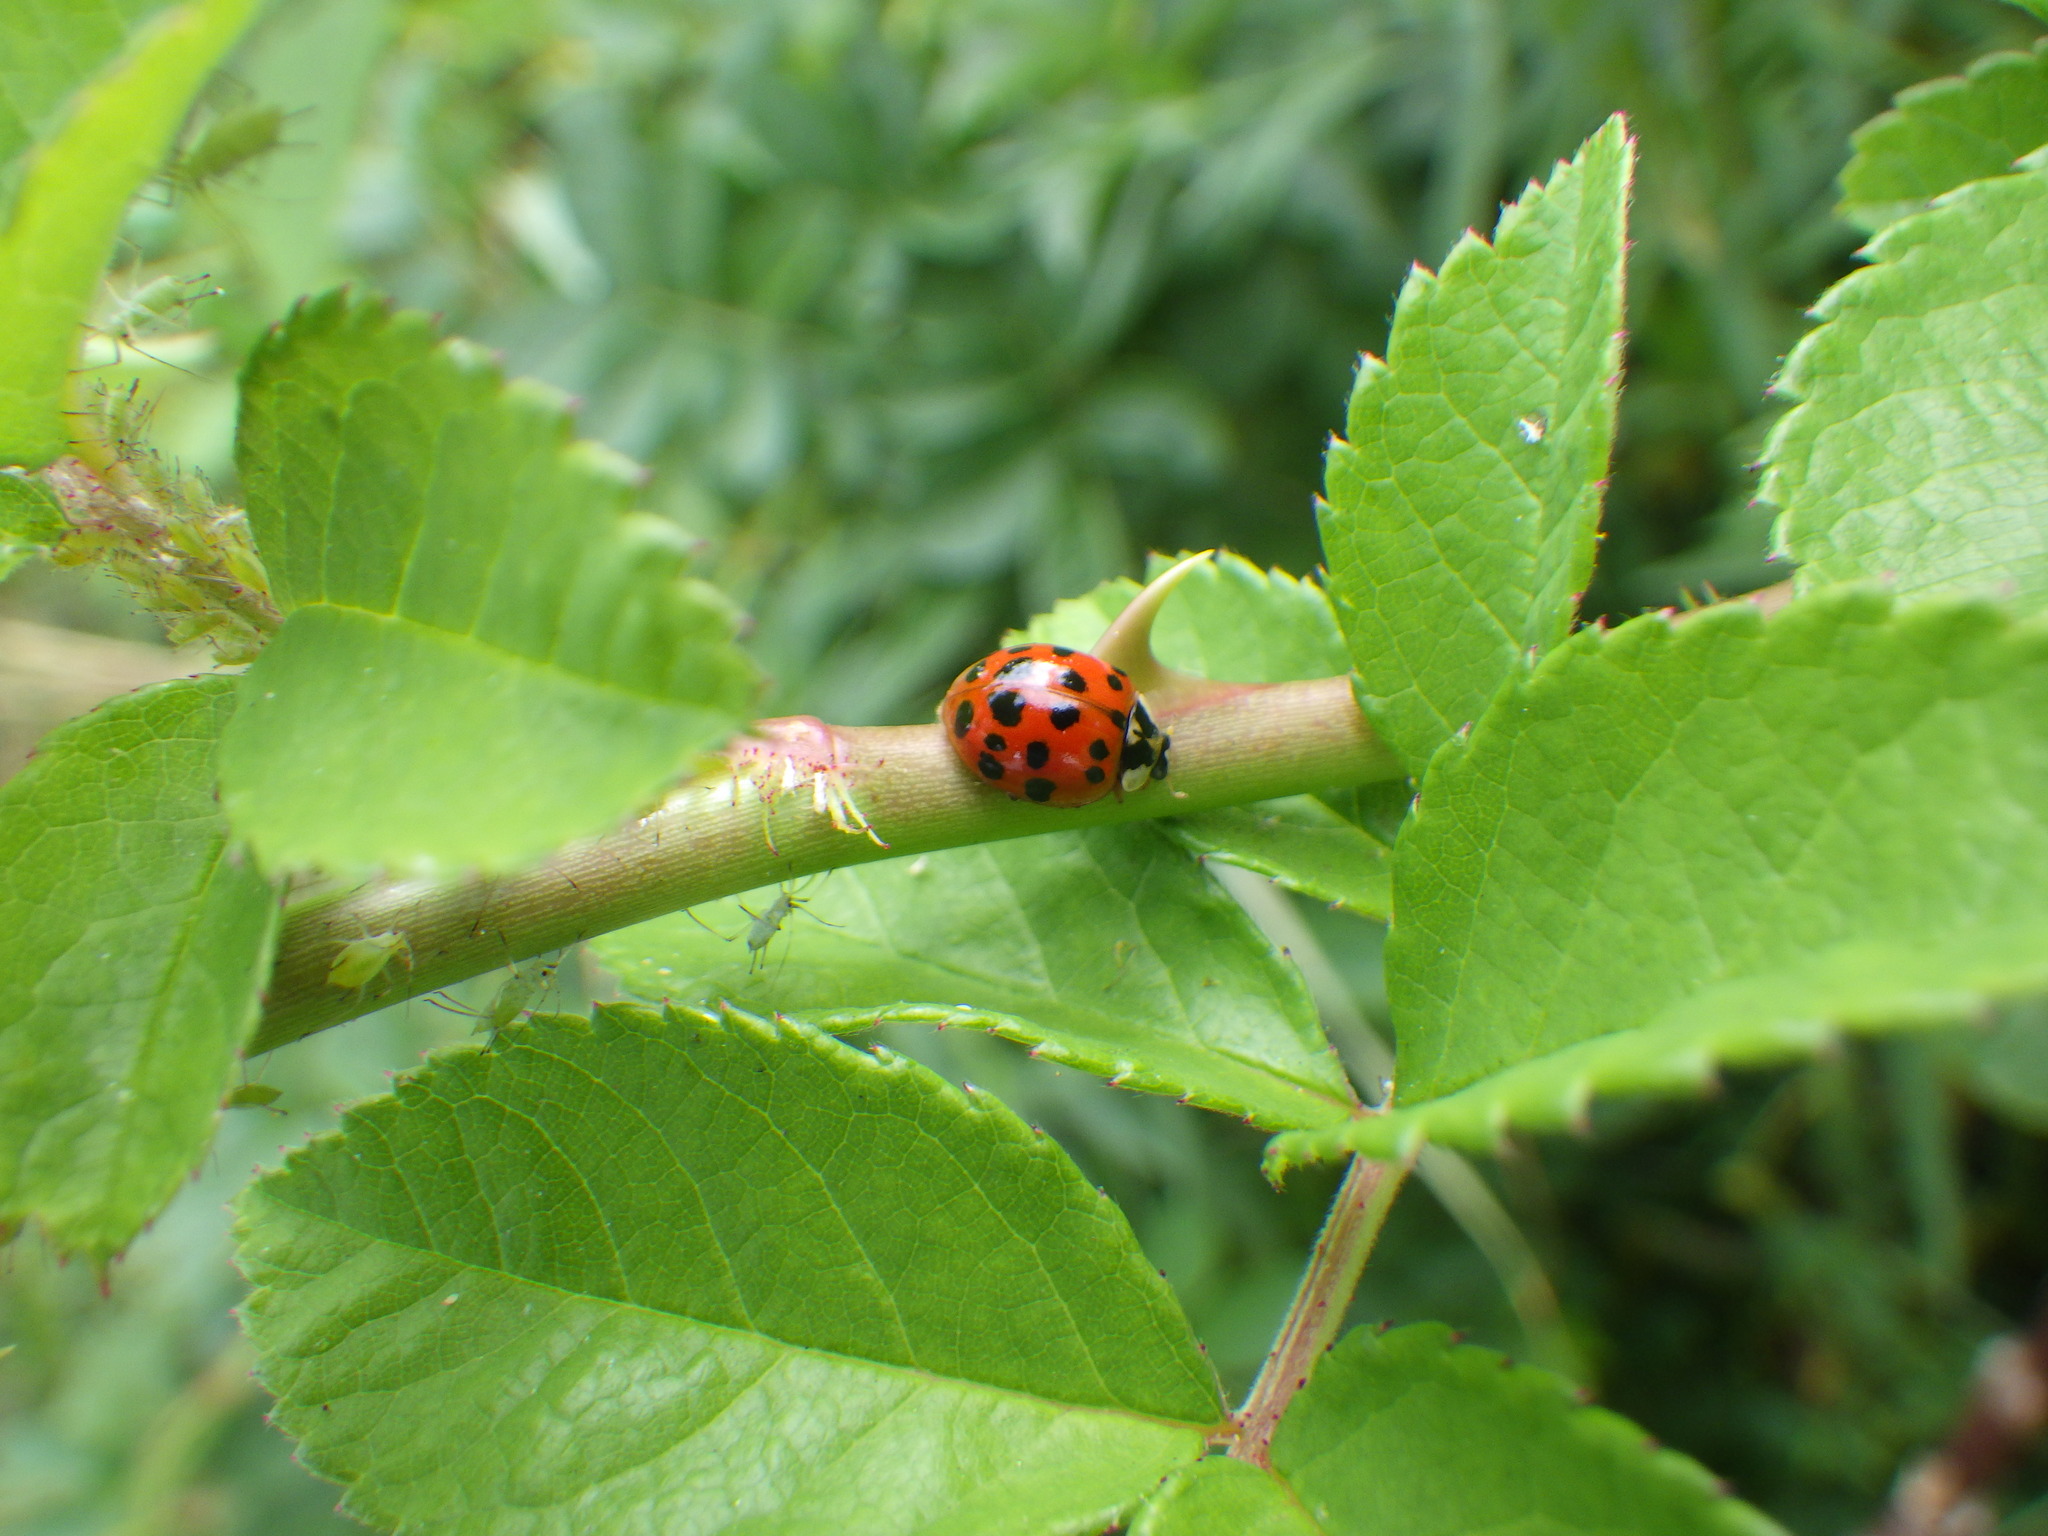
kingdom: Animalia
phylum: Arthropoda
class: Insecta
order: Coleoptera
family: Coccinellidae
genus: Harmonia
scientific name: Harmonia axyridis
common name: Harlequin ladybird
